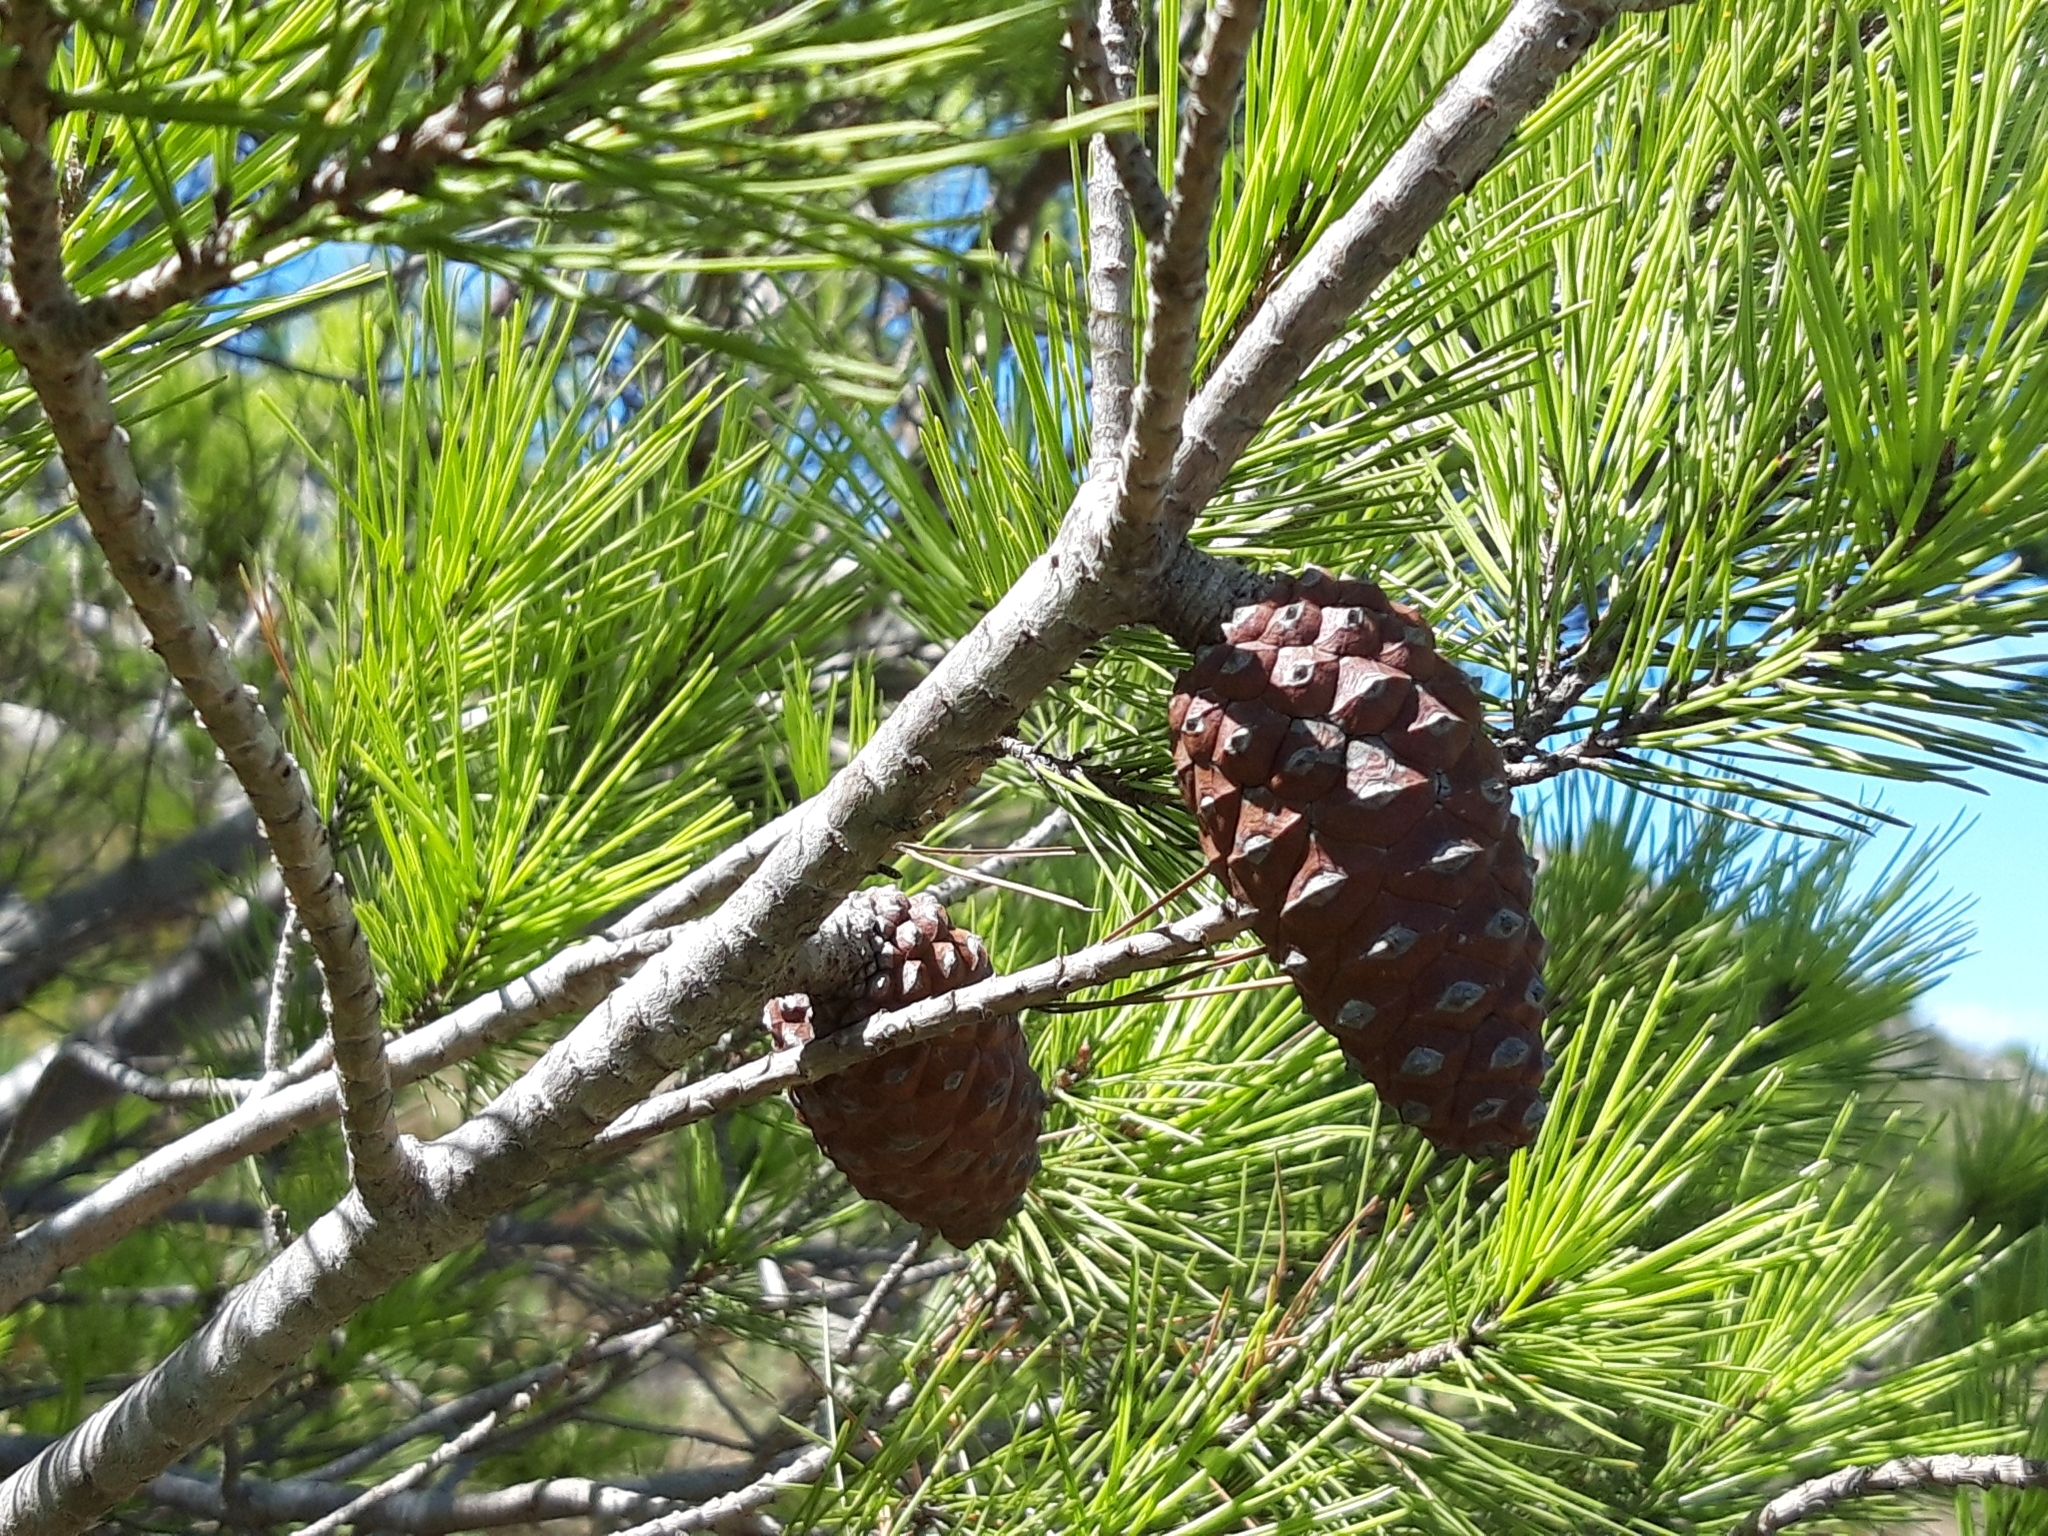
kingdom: Plantae
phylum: Tracheophyta
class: Pinopsida
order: Pinales
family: Pinaceae
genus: Pinus
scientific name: Pinus halepensis
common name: Aleppo pine
